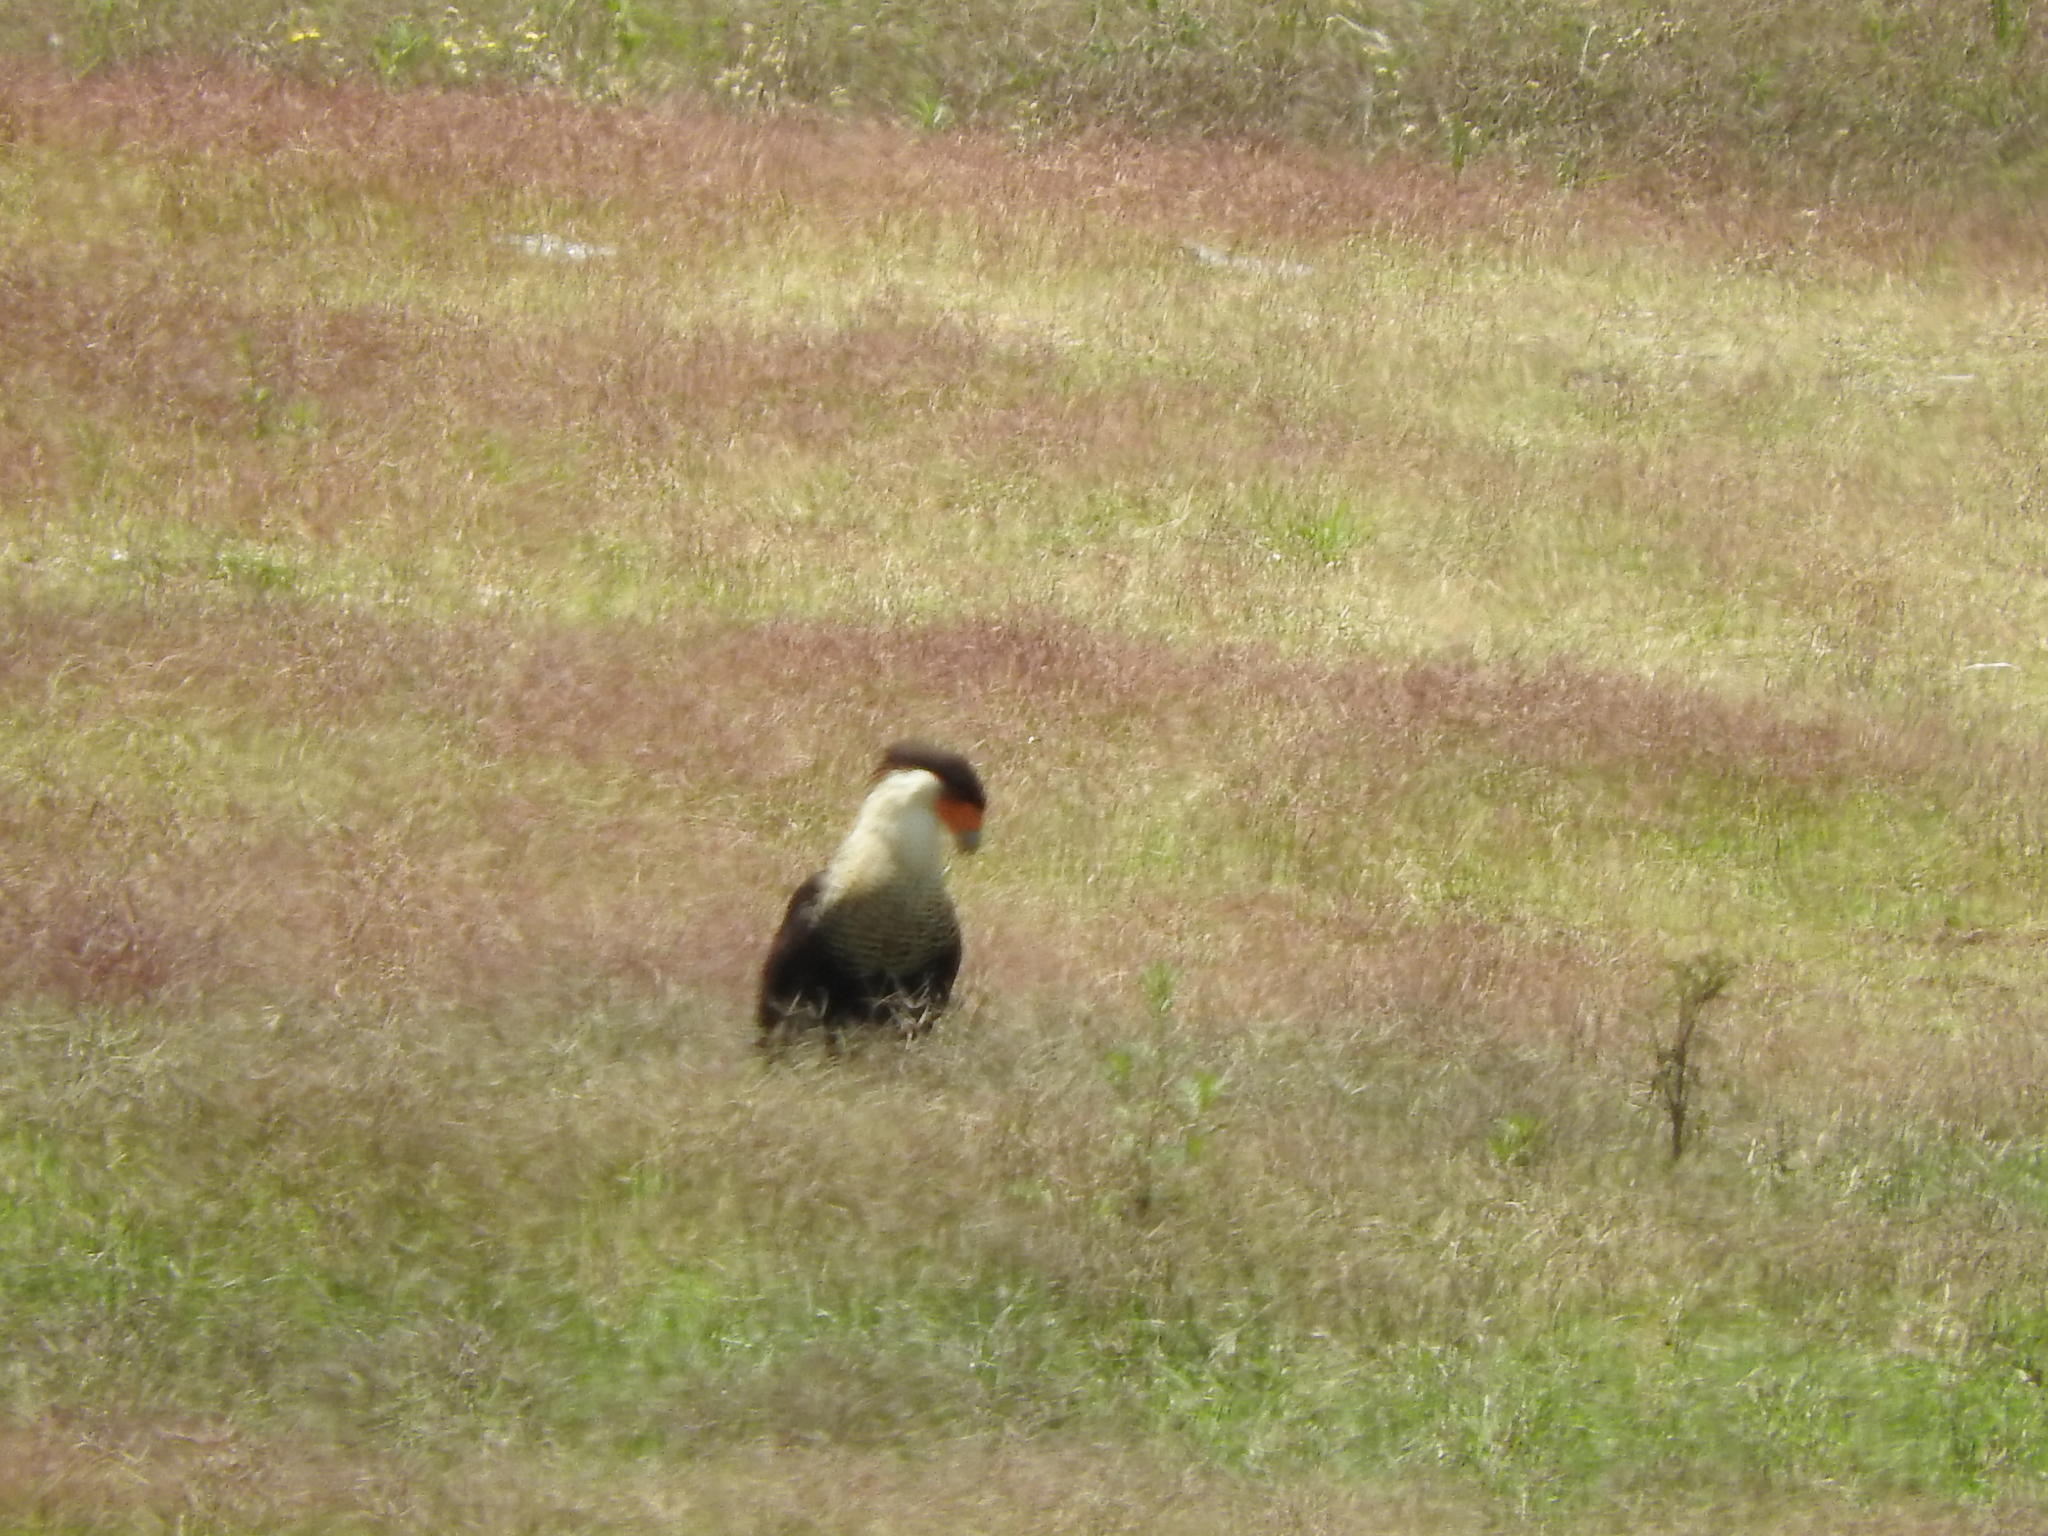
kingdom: Animalia
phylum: Chordata
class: Aves
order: Falconiformes
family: Falconidae
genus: Caracara
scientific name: Caracara plancus
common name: Southern caracara
